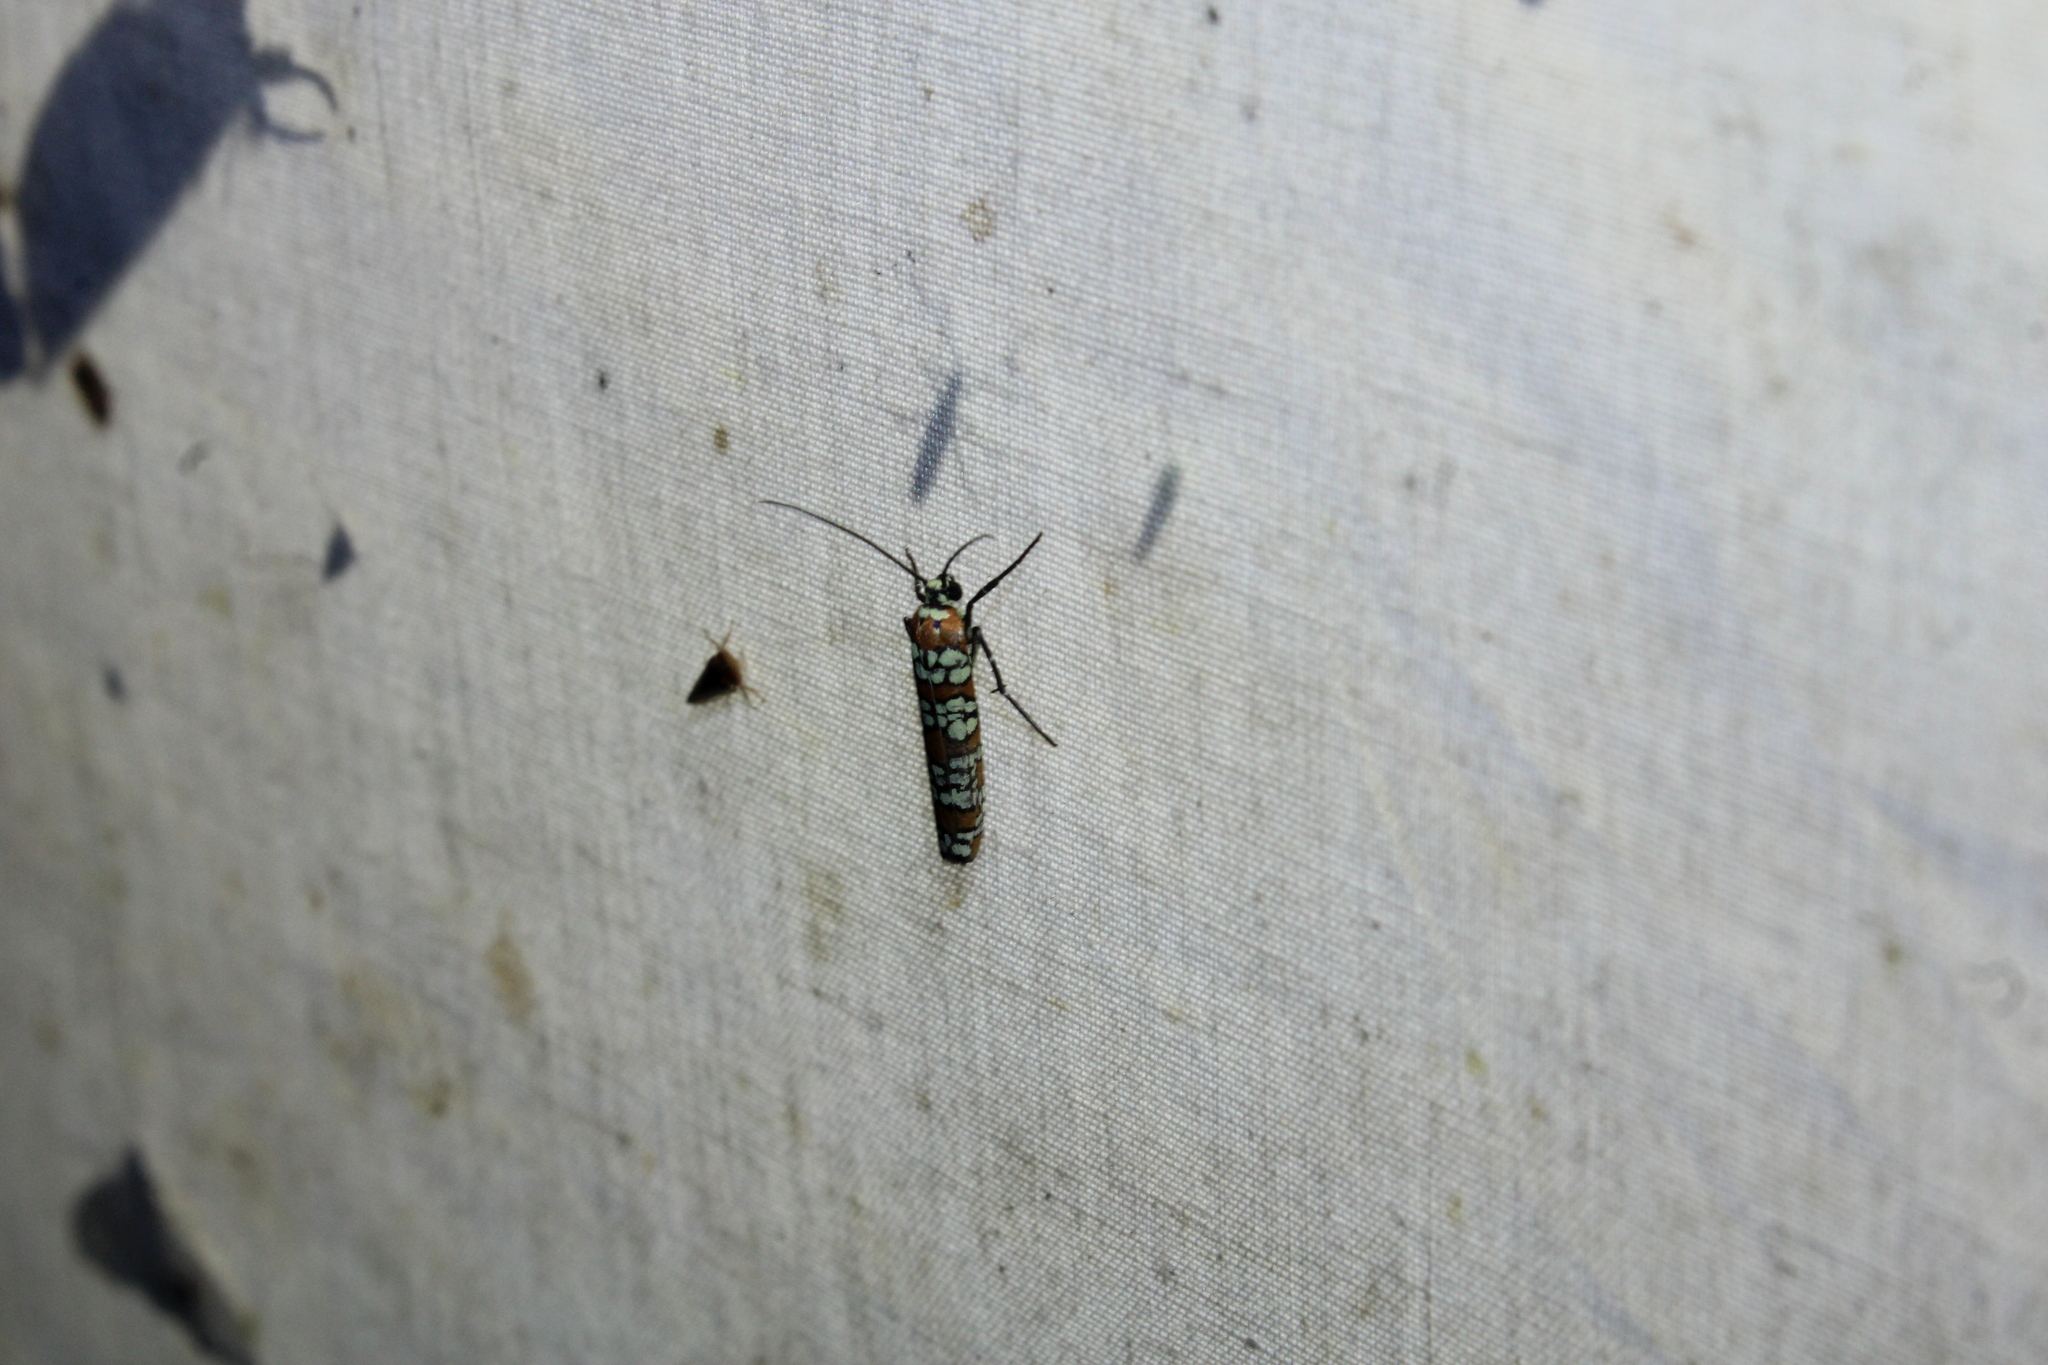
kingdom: Animalia
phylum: Arthropoda
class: Insecta
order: Lepidoptera
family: Attevidae
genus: Atteva
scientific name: Atteva punctella
